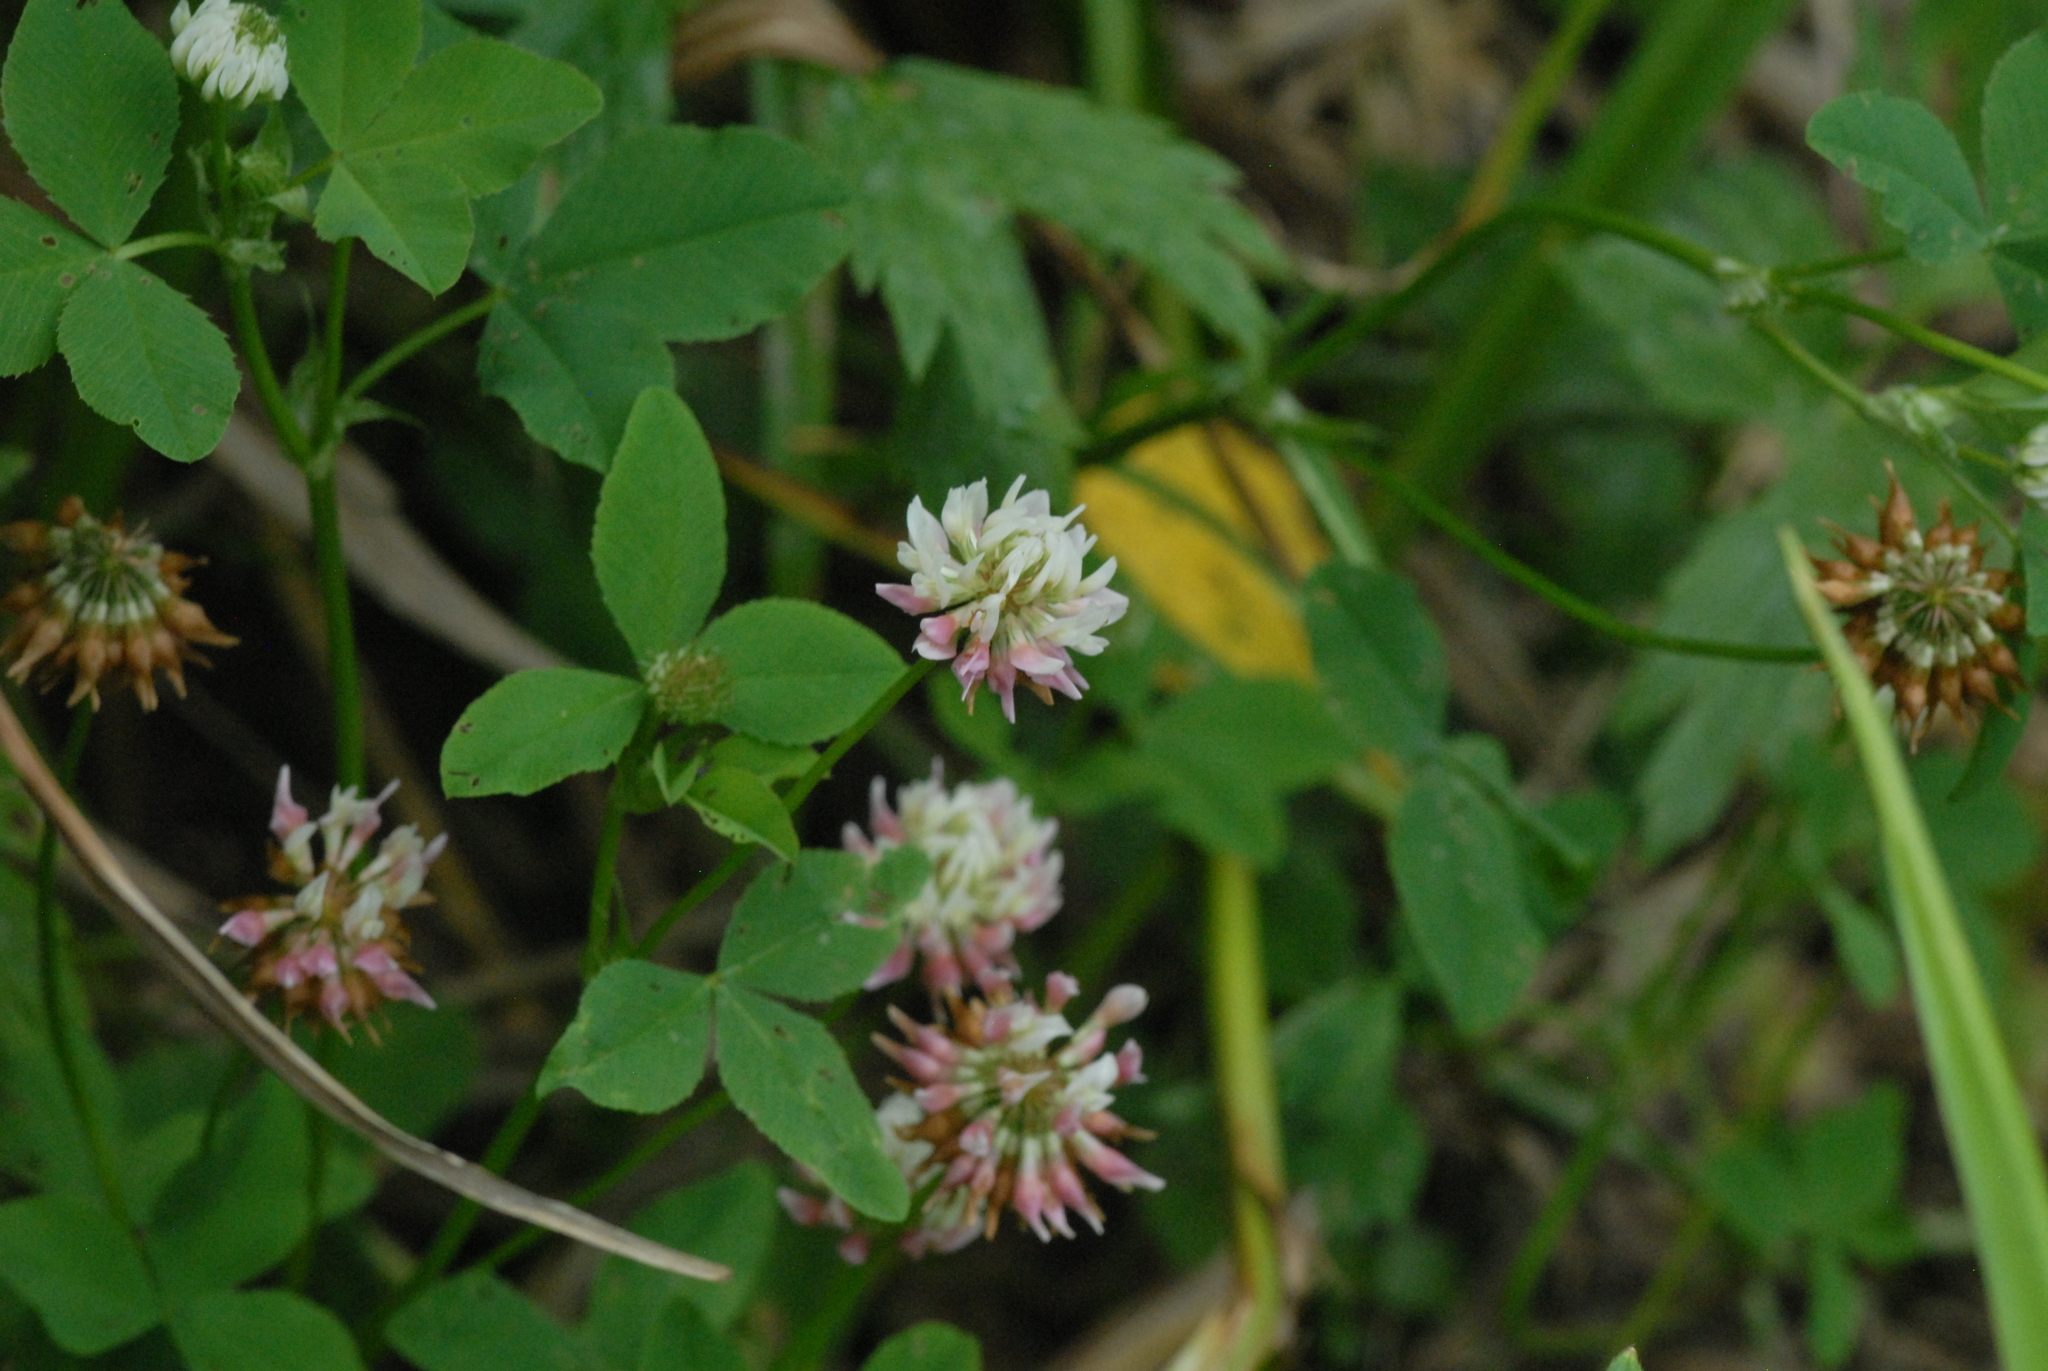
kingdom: Plantae
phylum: Tracheophyta
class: Magnoliopsida
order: Fabales
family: Fabaceae
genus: Trifolium
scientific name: Trifolium hybridum
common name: Alsike clover
